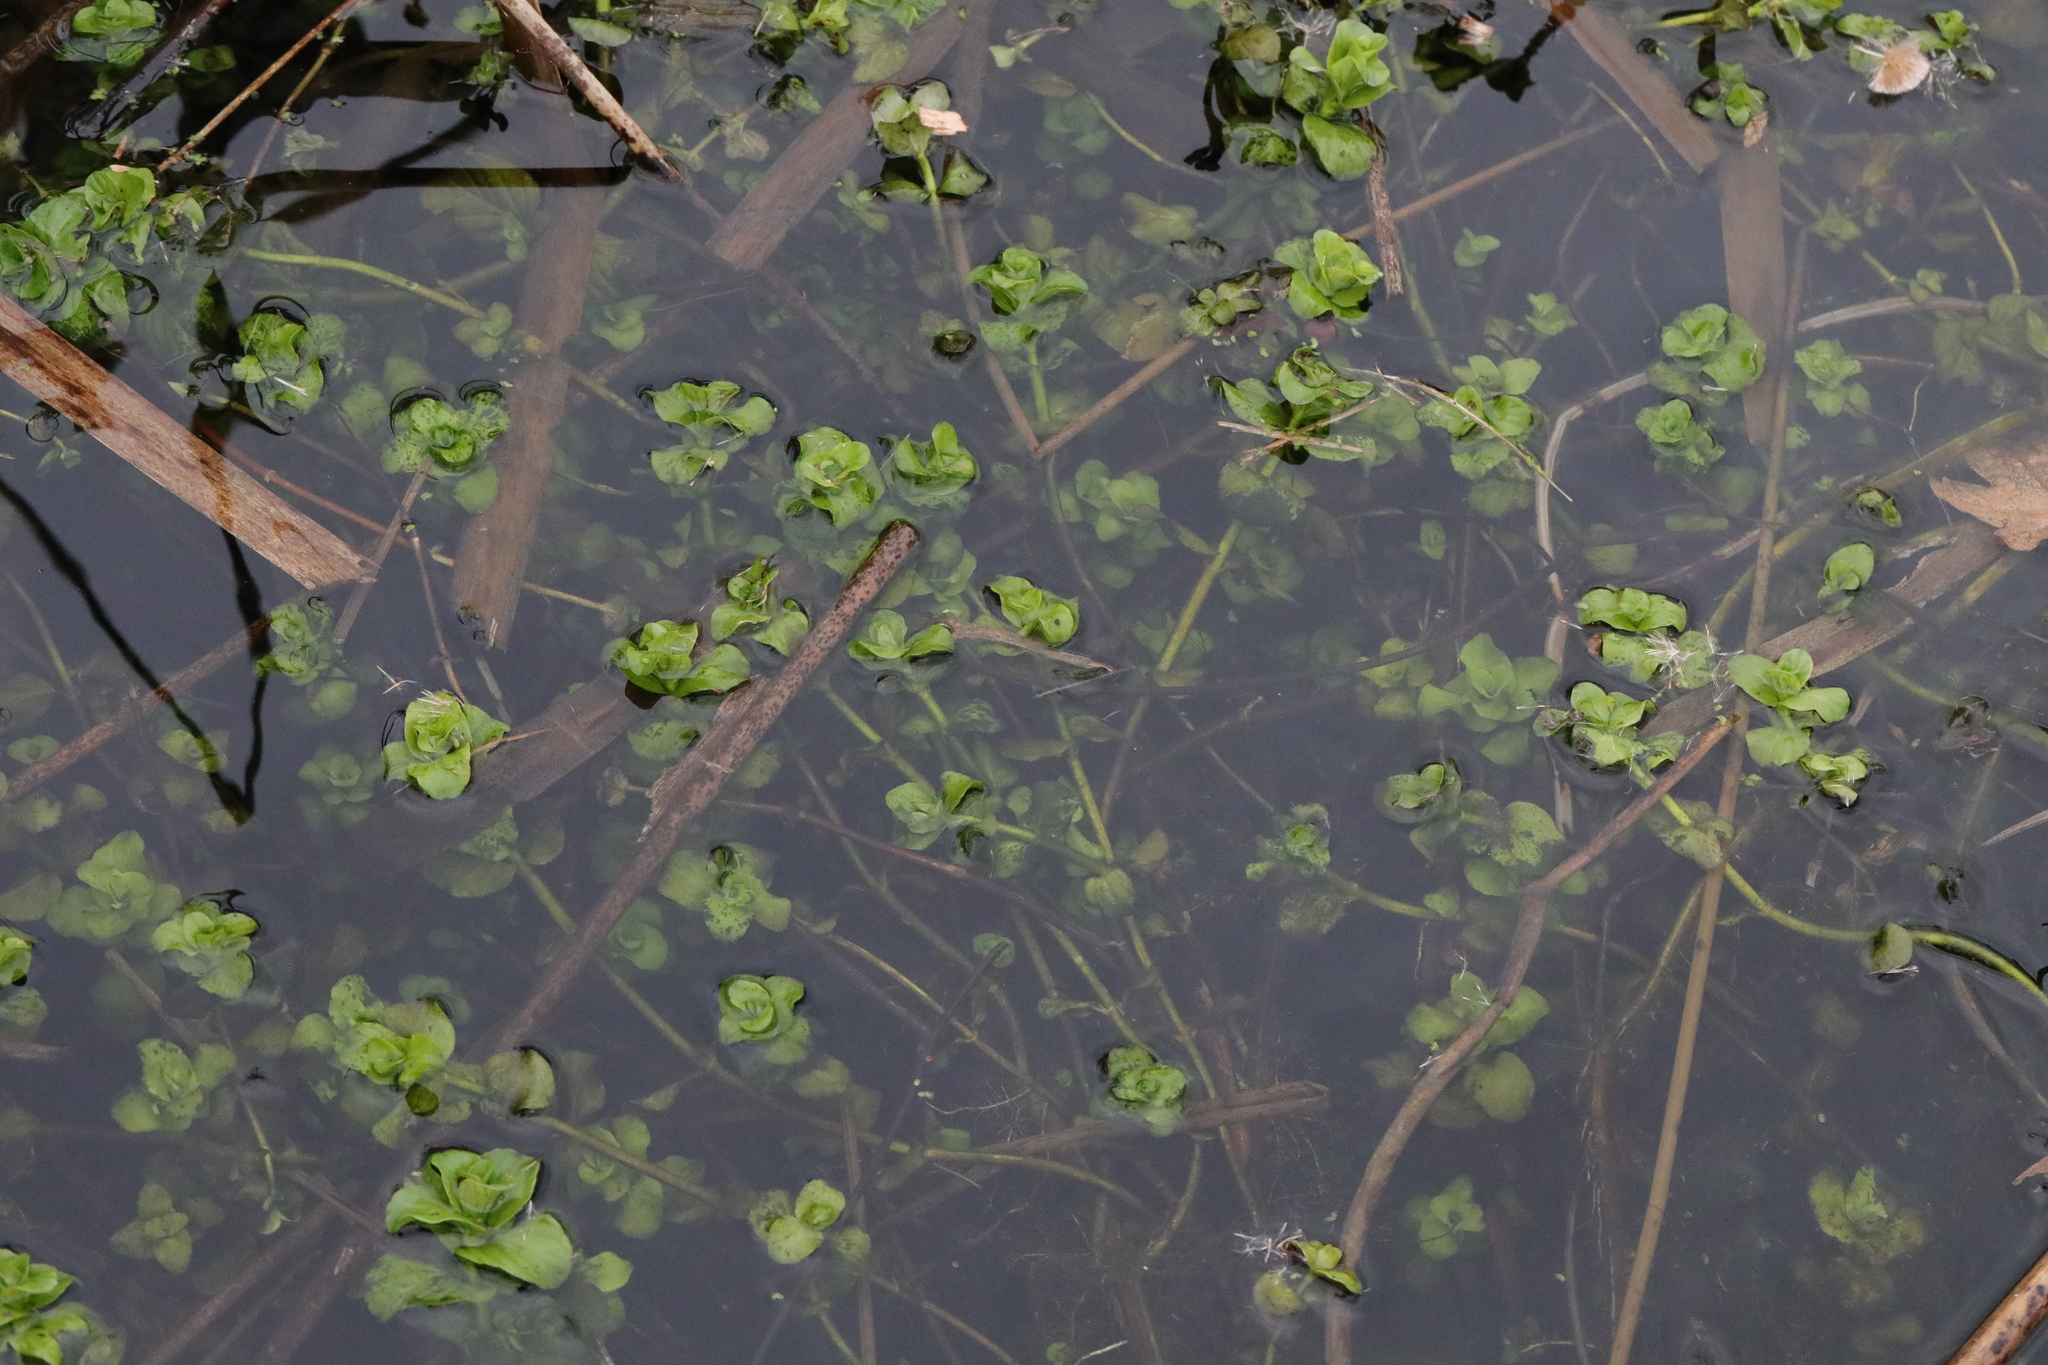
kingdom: Plantae
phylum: Tracheophyta
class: Magnoliopsida
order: Lamiales
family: Plantaginaceae
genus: Veronica
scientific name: Veronica beccabunga
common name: Brooklime
